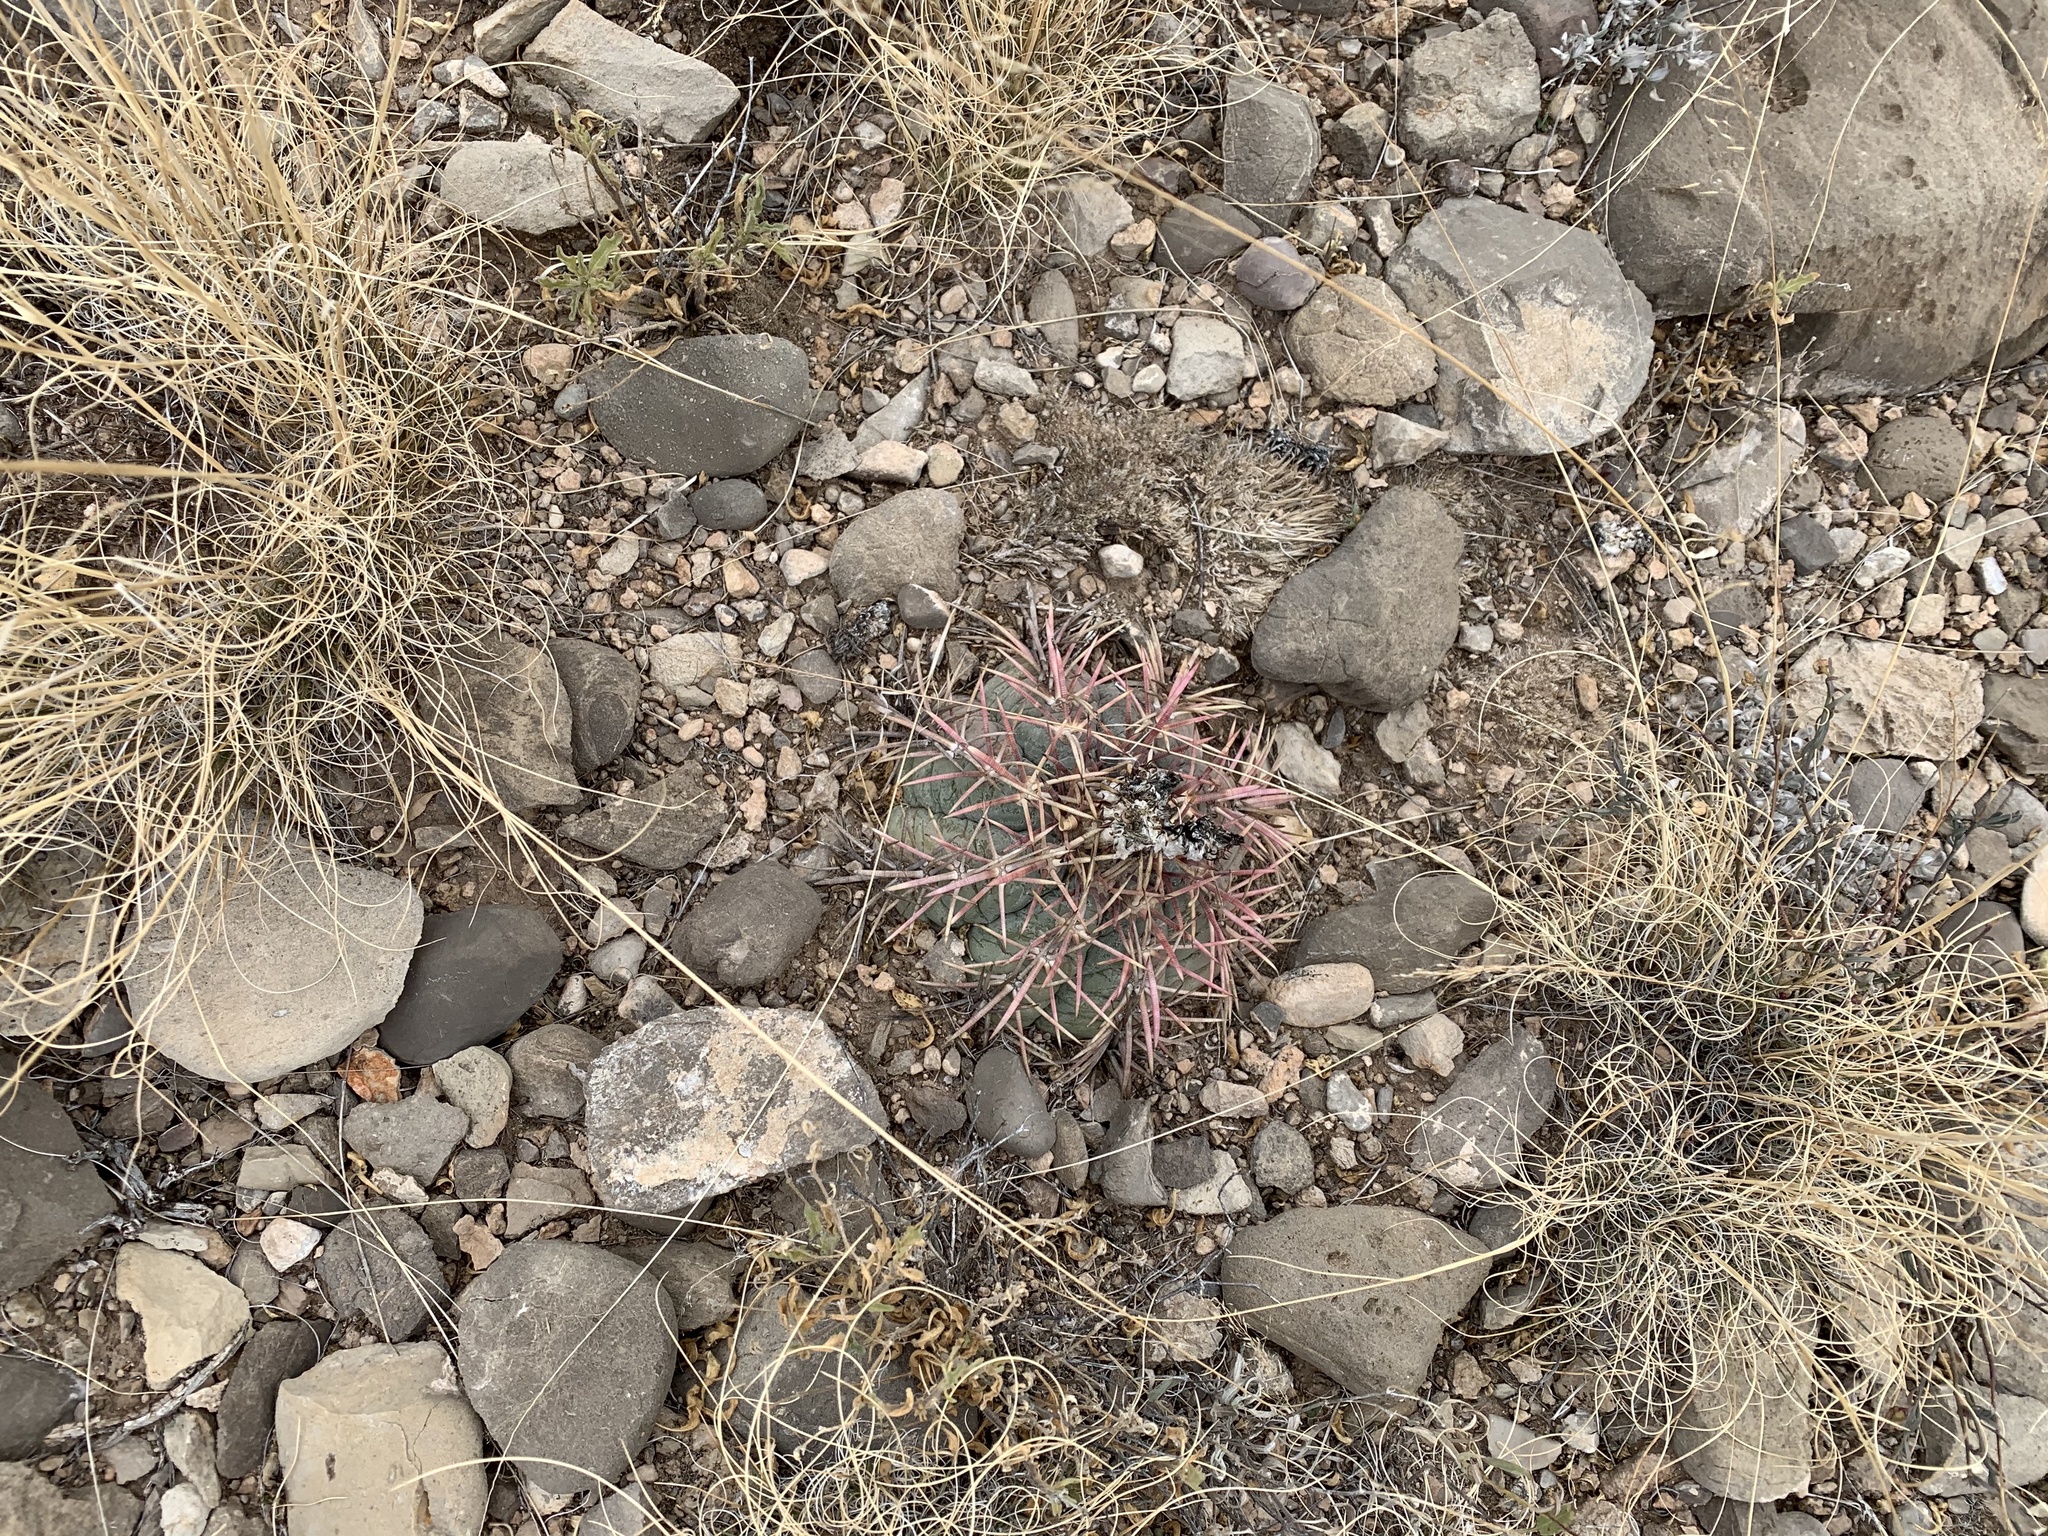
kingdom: Plantae
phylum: Tracheophyta
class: Magnoliopsida
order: Caryophyllales
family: Cactaceae
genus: Echinocactus
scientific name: Echinocactus horizonthalonius
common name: Devilshead
